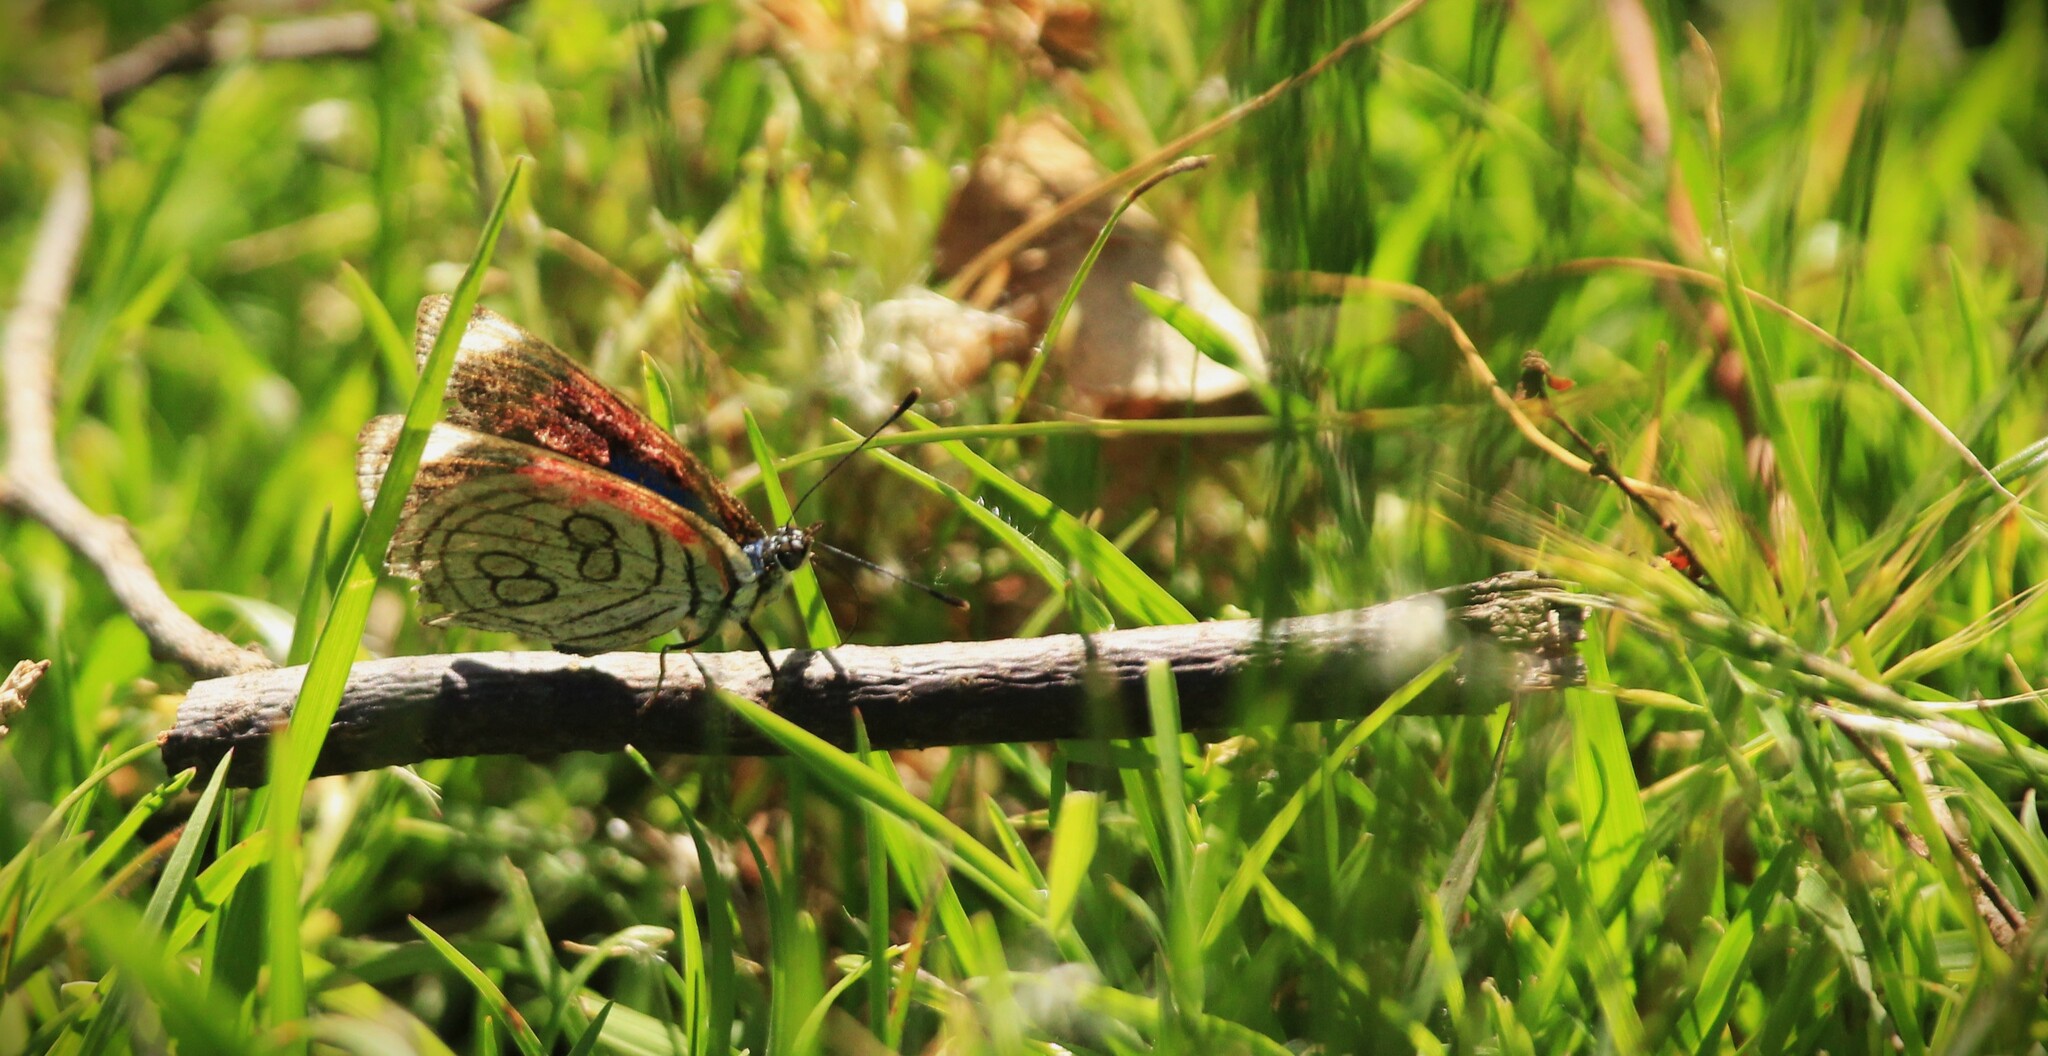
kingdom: Animalia
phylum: Arthropoda
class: Insecta
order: Lepidoptera
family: Nymphalidae
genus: Diaethria
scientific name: Diaethria candrena
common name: Number eighty
